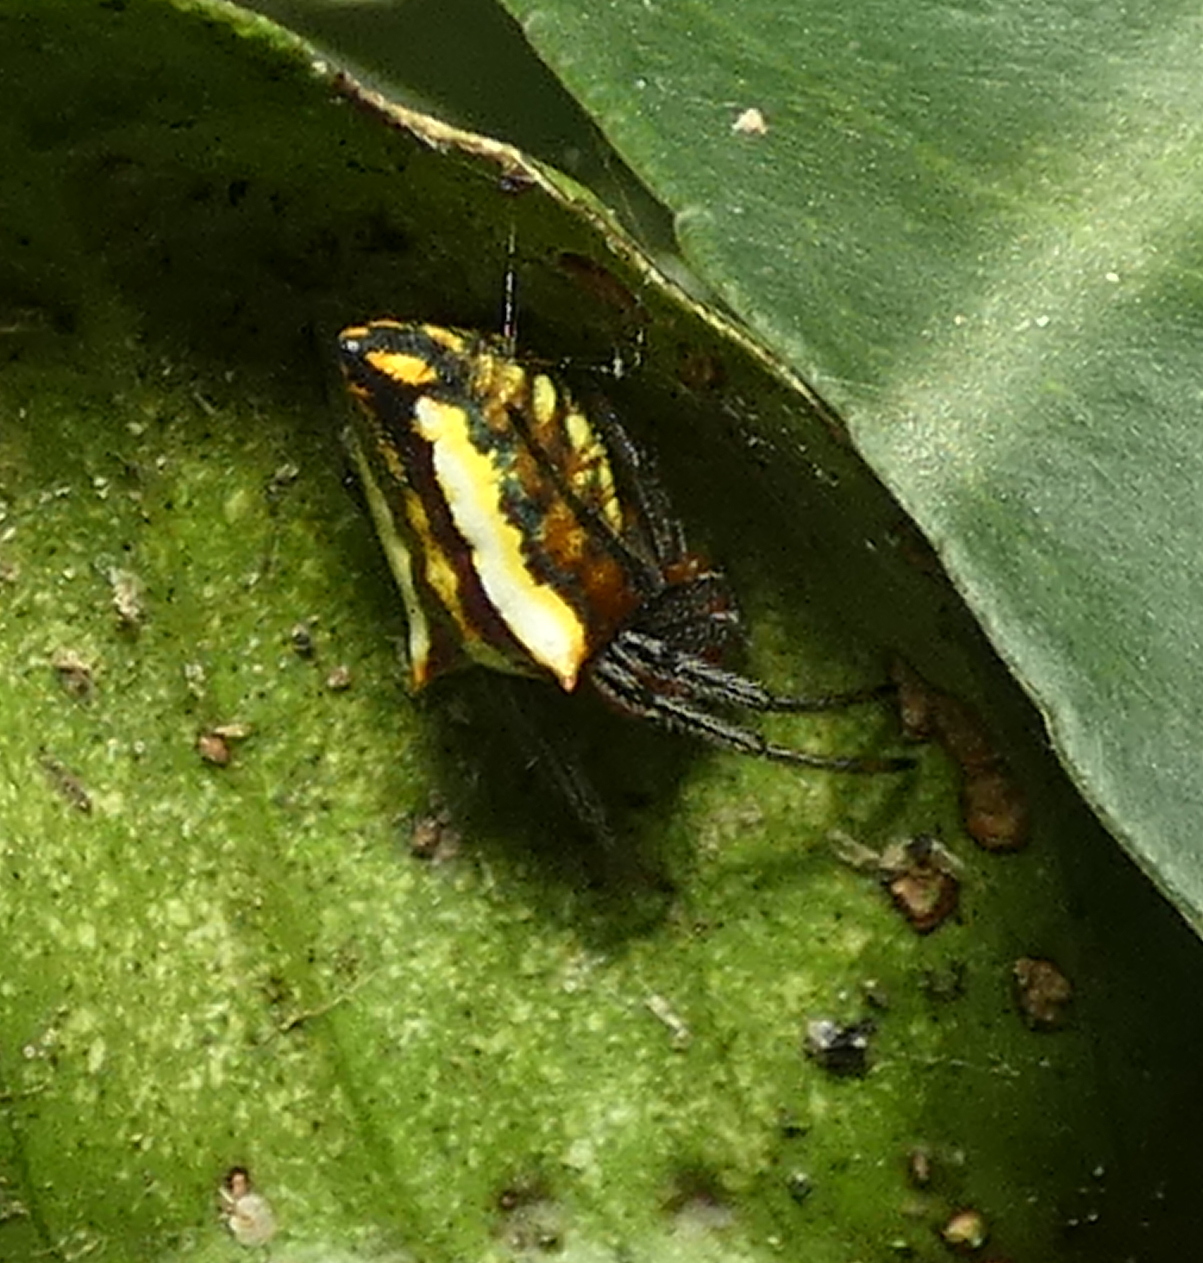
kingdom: Animalia
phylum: Arthropoda
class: Arachnida
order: Araneae
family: Araneidae
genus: Alpaida
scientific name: Alpaida bicornuta
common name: Orb weavers
